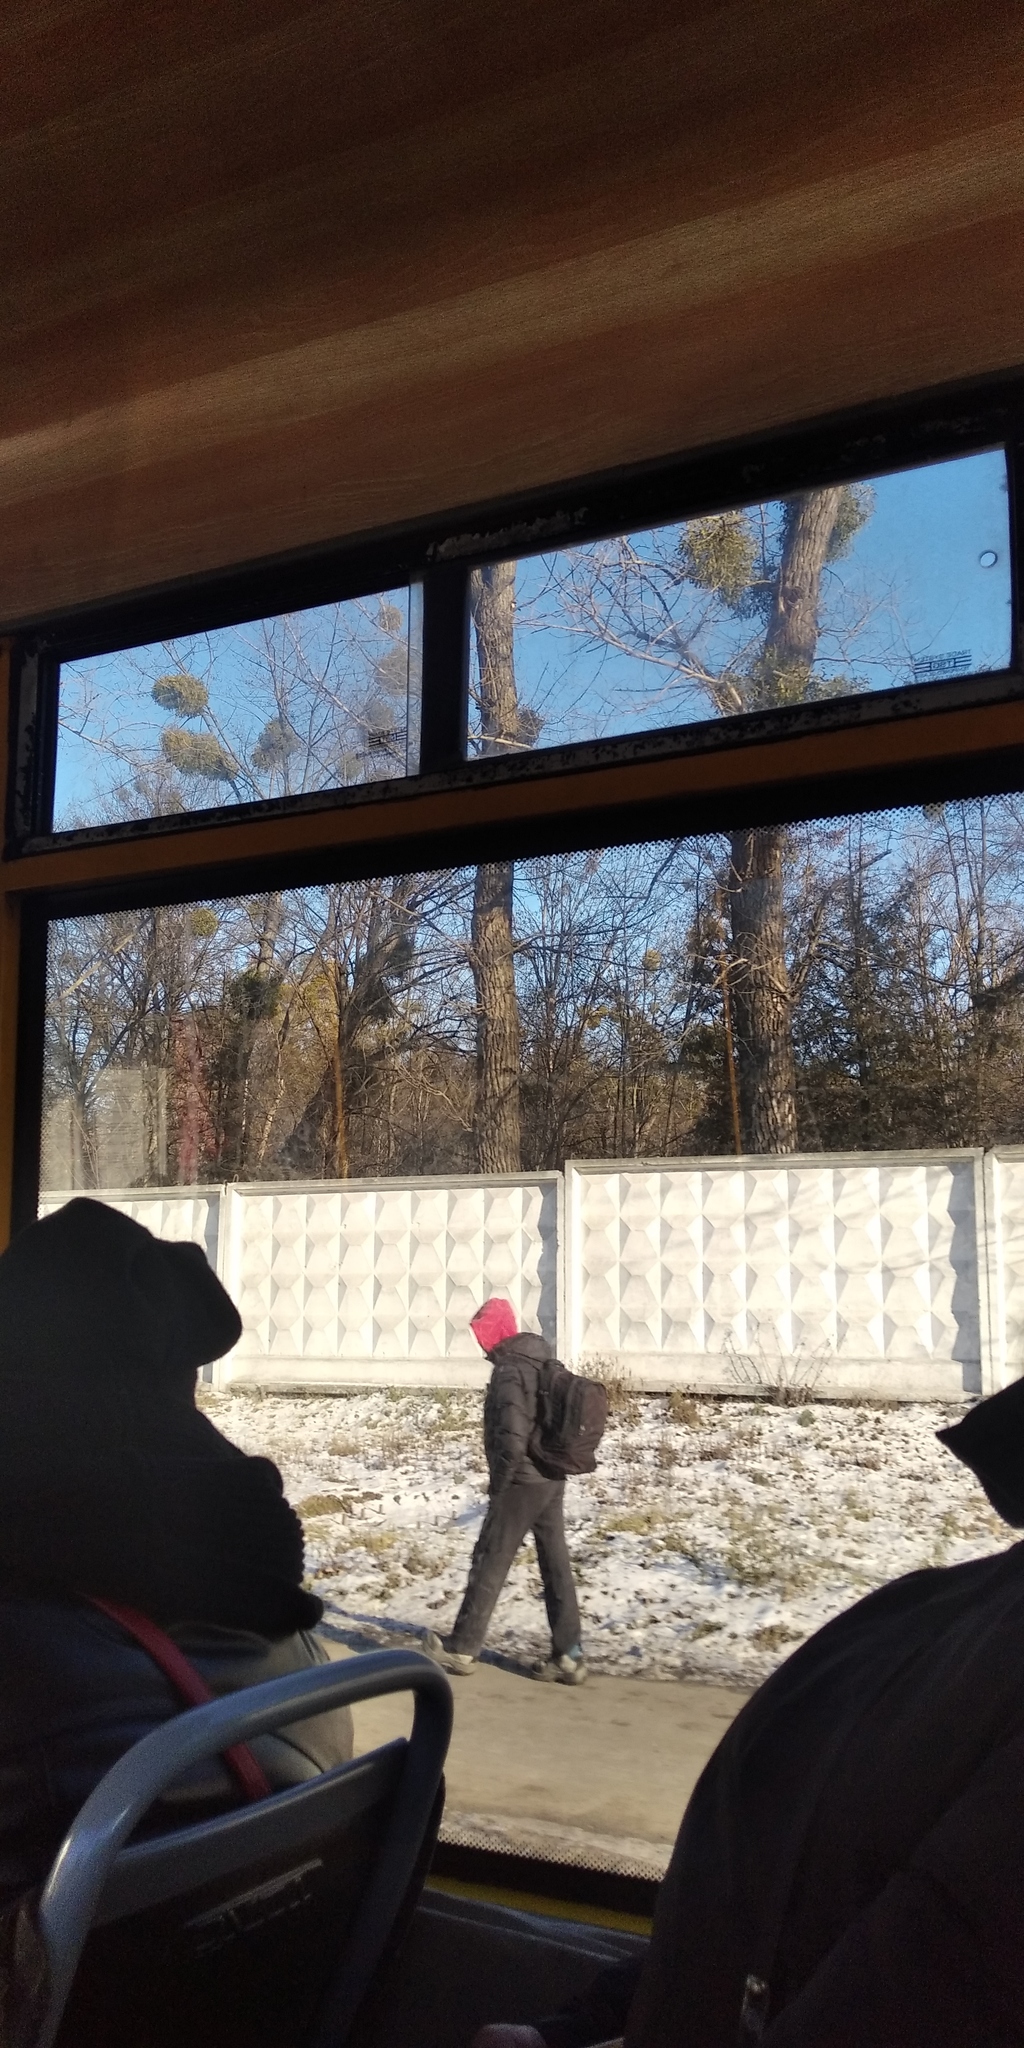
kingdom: Plantae
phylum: Tracheophyta
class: Magnoliopsida
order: Santalales
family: Viscaceae
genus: Viscum
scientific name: Viscum album
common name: Mistletoe
